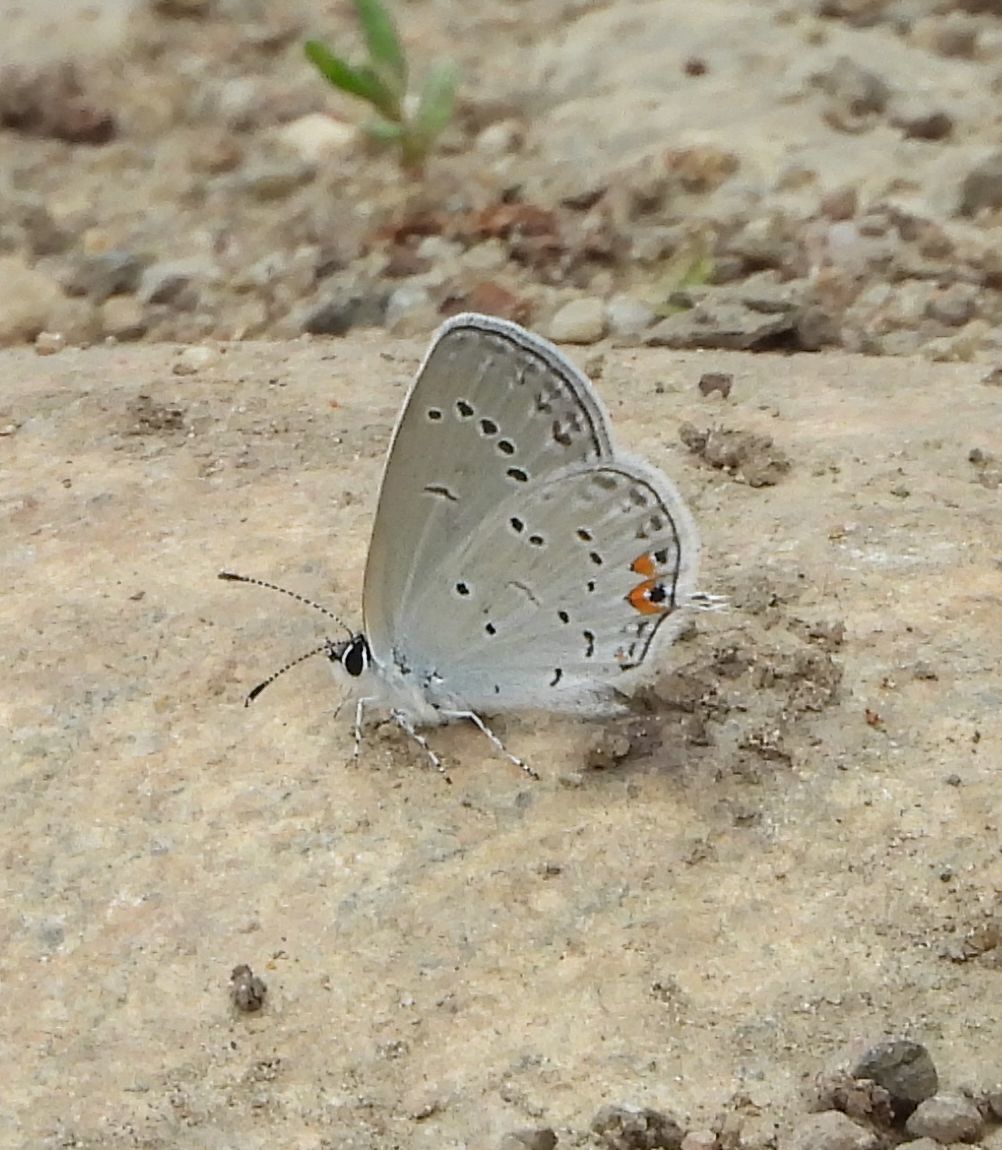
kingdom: Animalia
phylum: Arthropoda
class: Insecta
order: Lepidoptera
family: Lycaenidae
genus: Elkalyce
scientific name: Elkalyce comyntas
